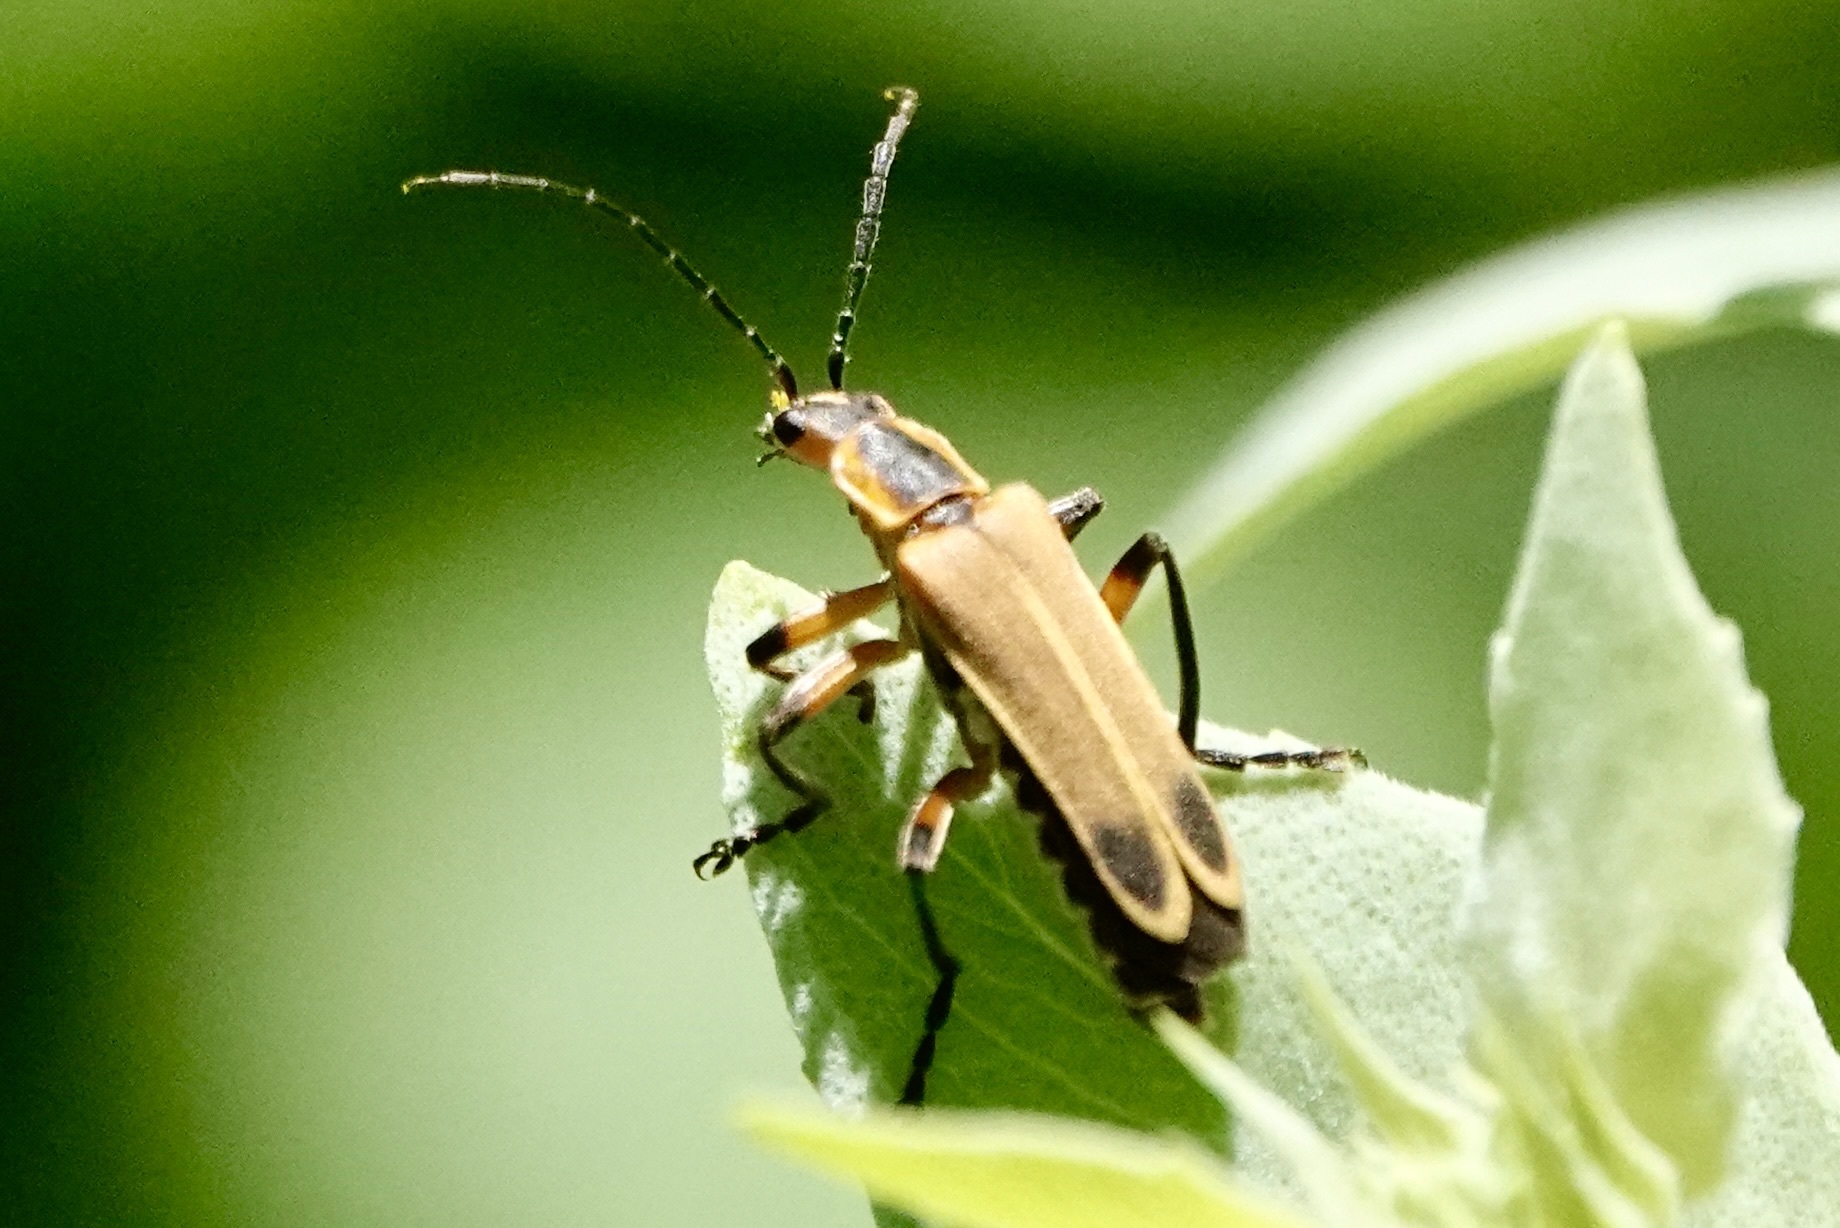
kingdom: Animalia
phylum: Arthropoda
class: Insecta
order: Coleoptera
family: Cantharidae
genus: Chauliognathus
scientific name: Chauliognathus marginatus
